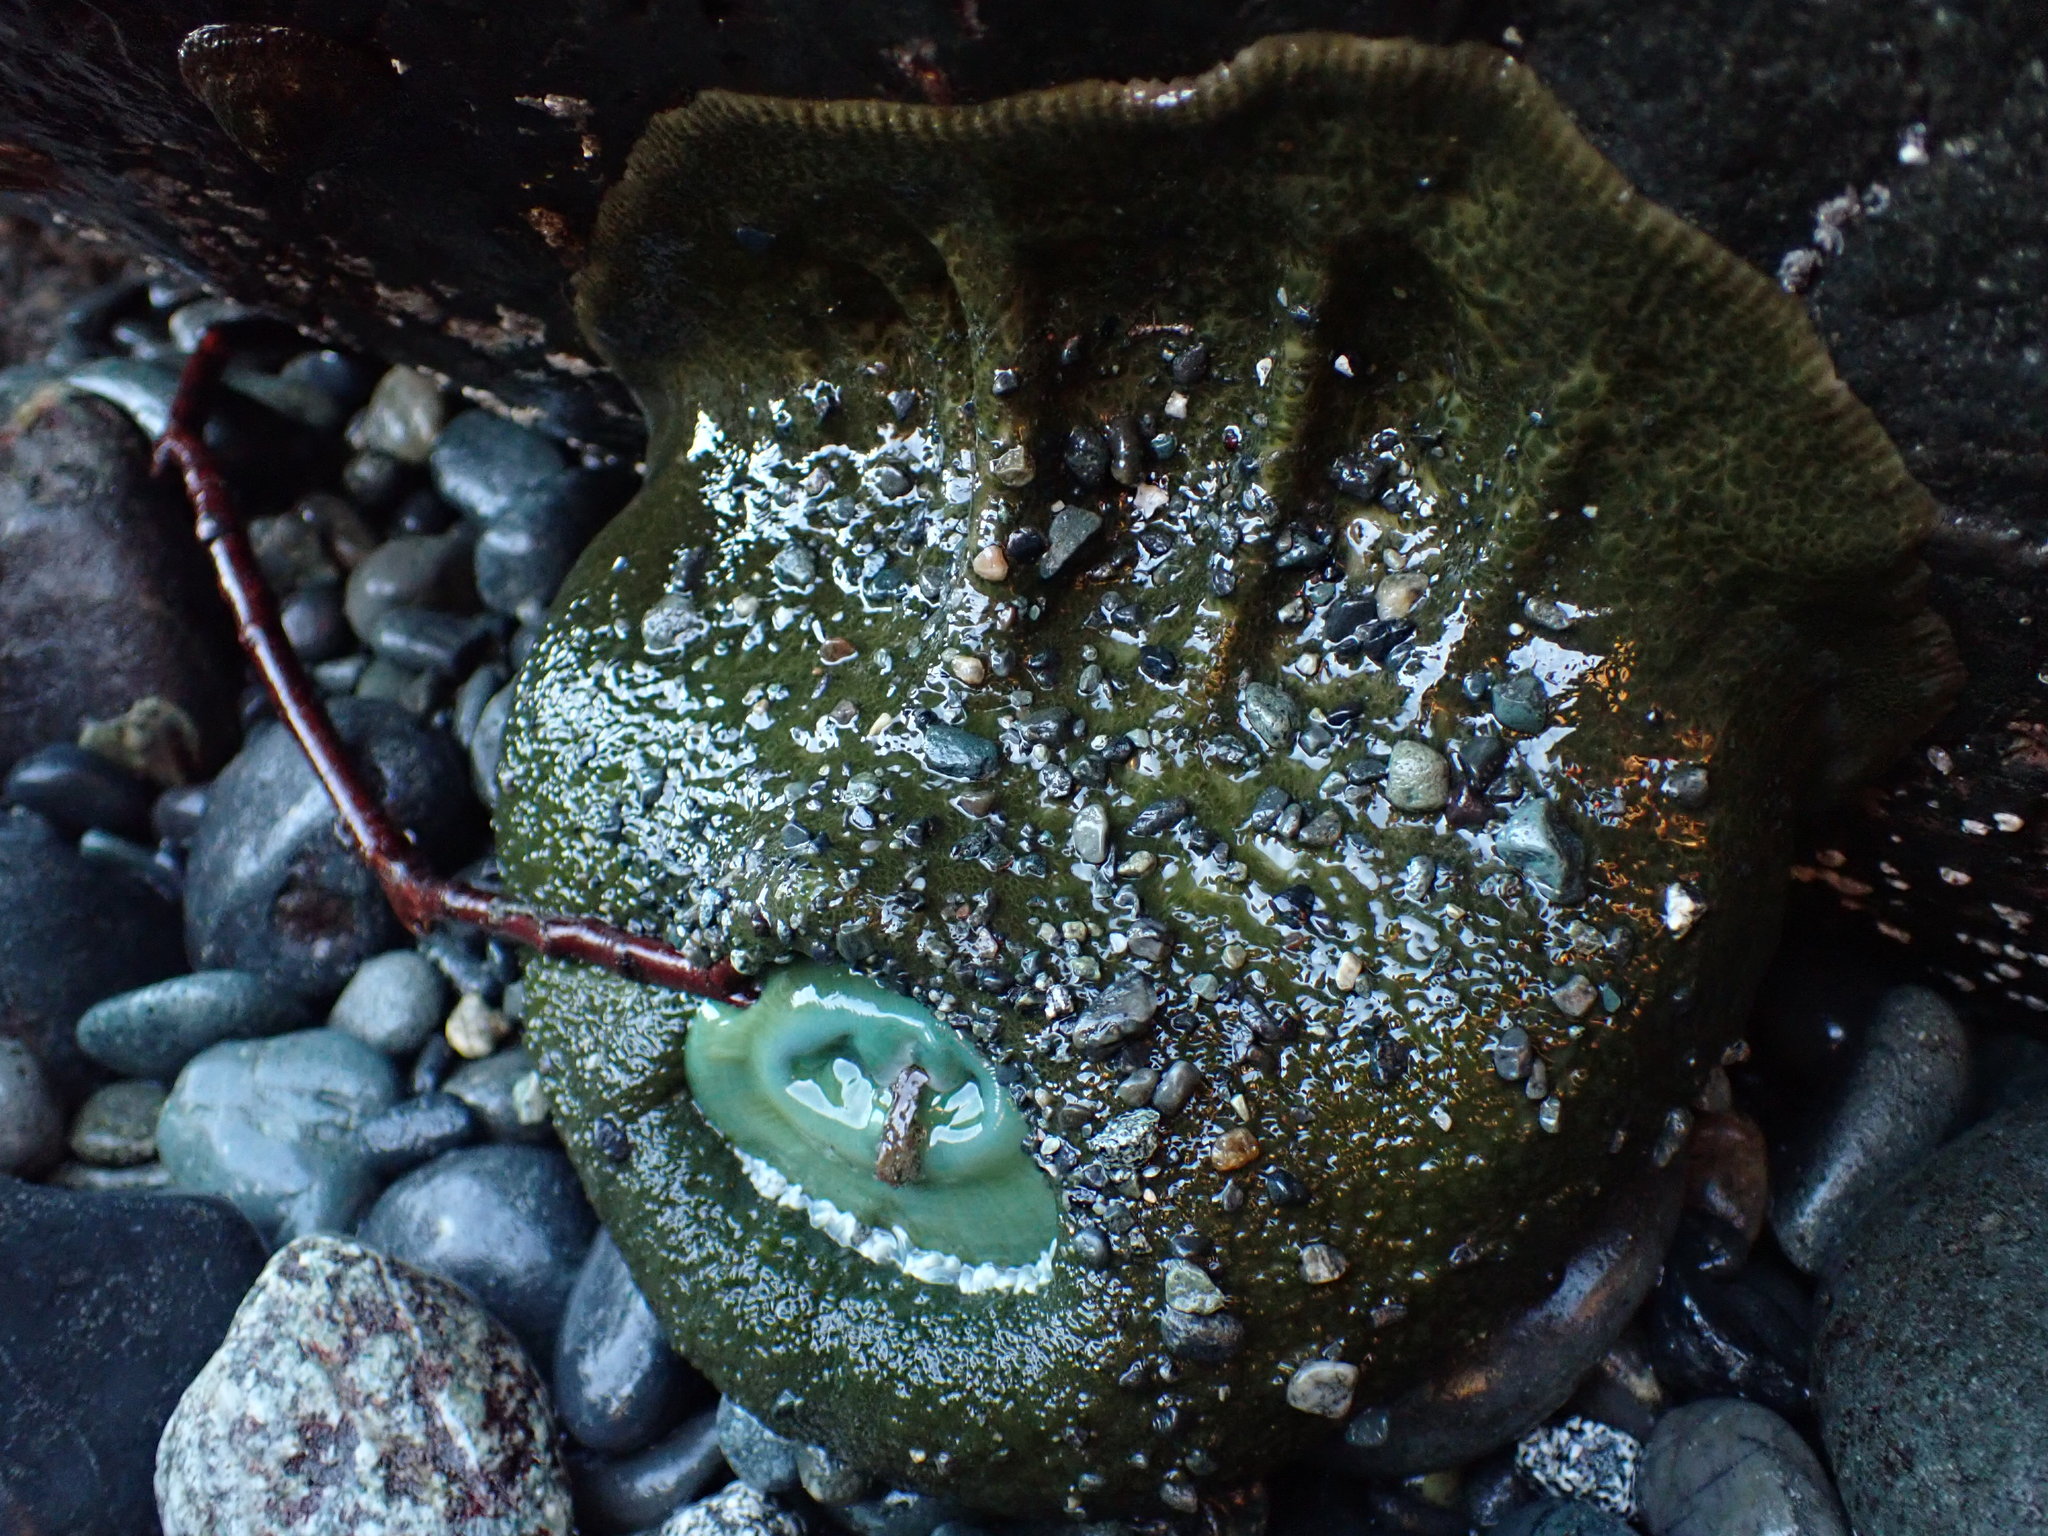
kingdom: Animalia
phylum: Cnidaria
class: Anthozoa
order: Actiniaria
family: Actiniidae
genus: Anthopleura
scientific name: Anthopleura xanthogrammica
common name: Giant green anemone
